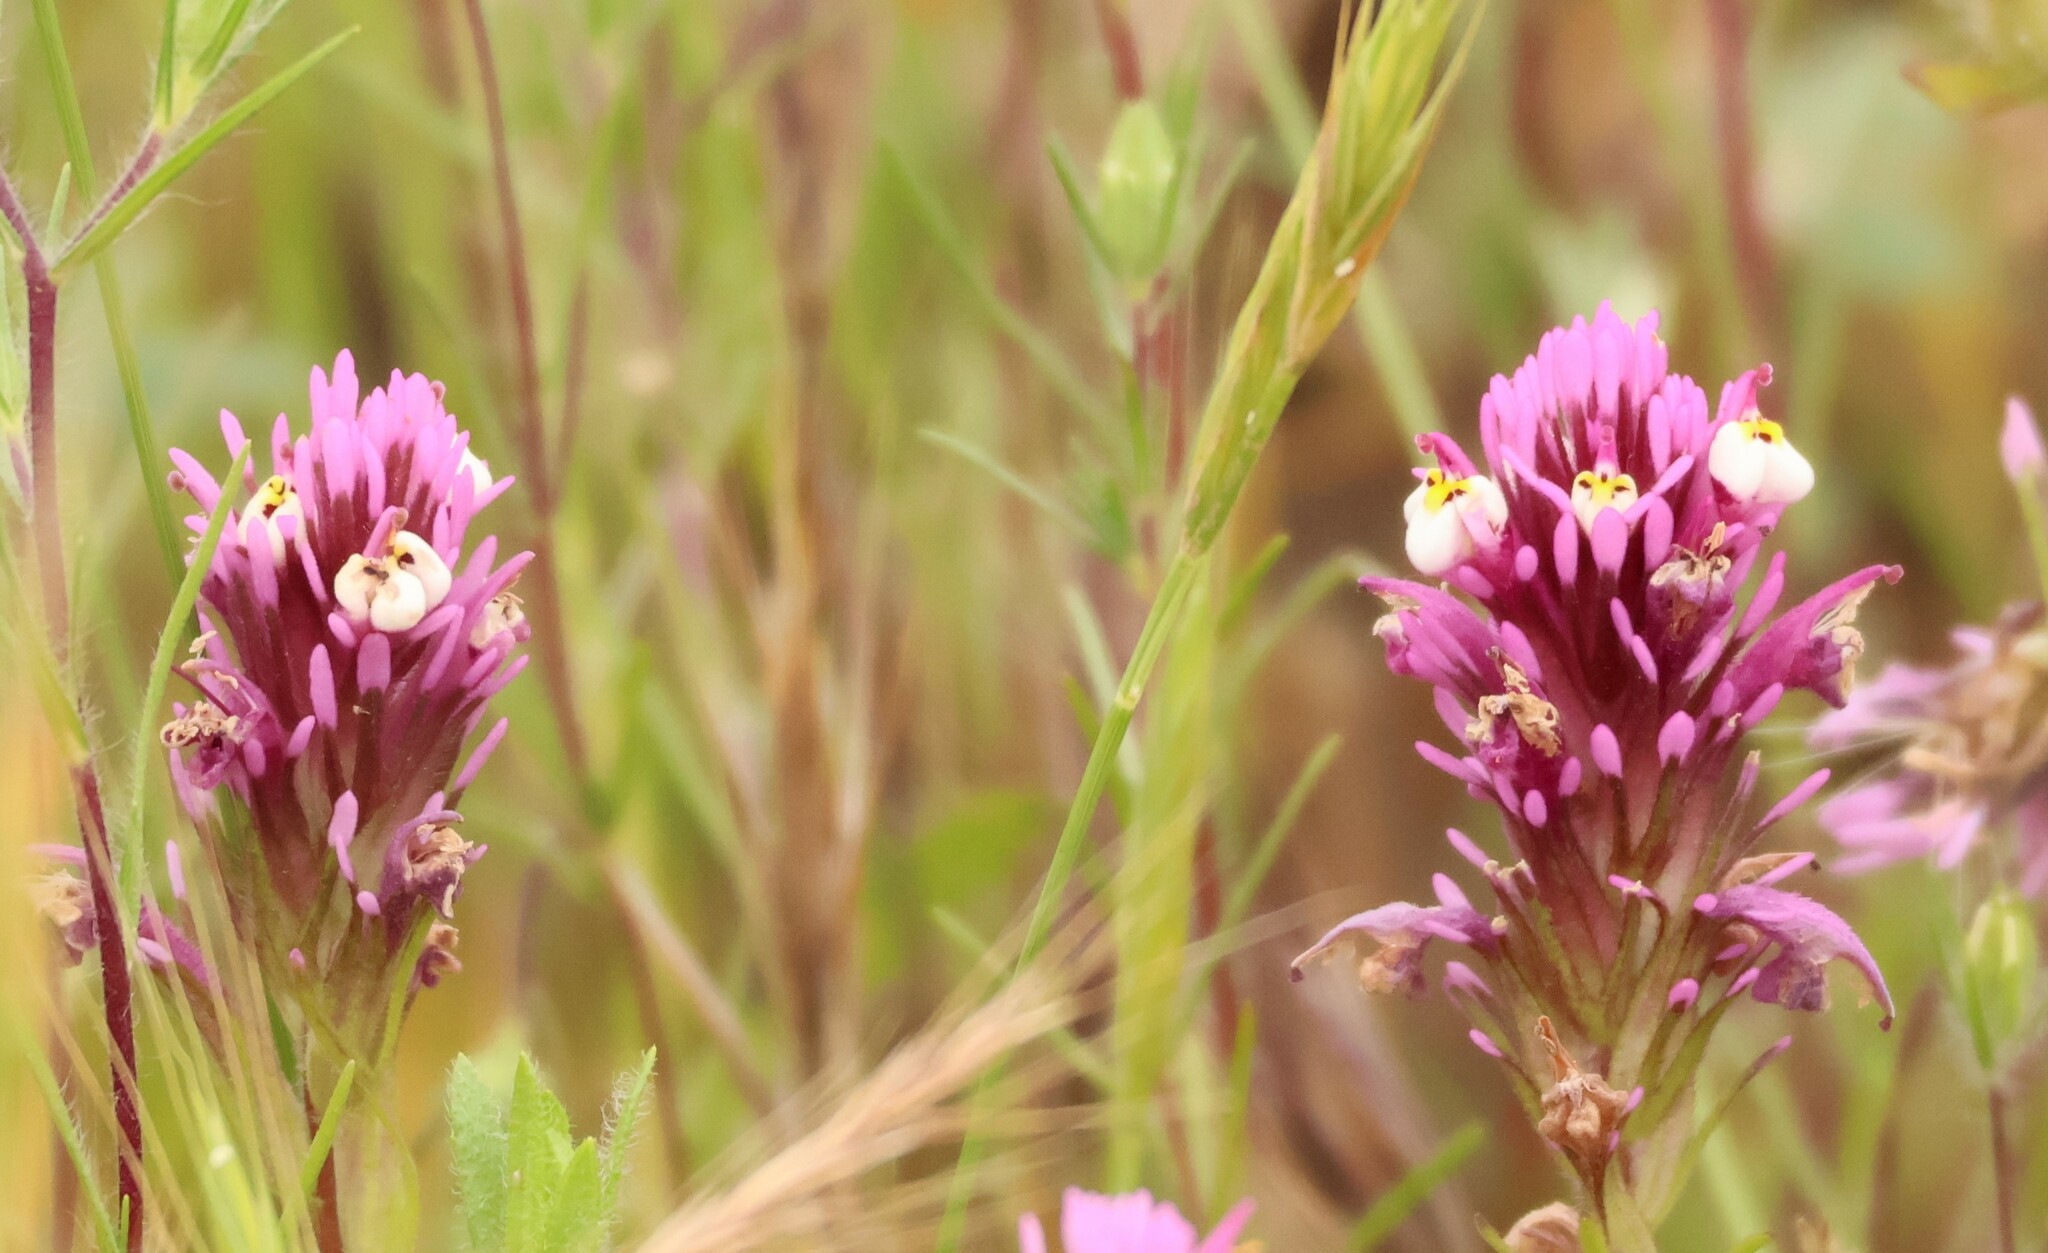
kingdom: Plantae
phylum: Tracheophyta
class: Magnoliopsida
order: Lamiales
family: Orobanchaceae
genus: Castilleja
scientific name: Castilleja densiflora
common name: Dense-flower indian paintbrush
